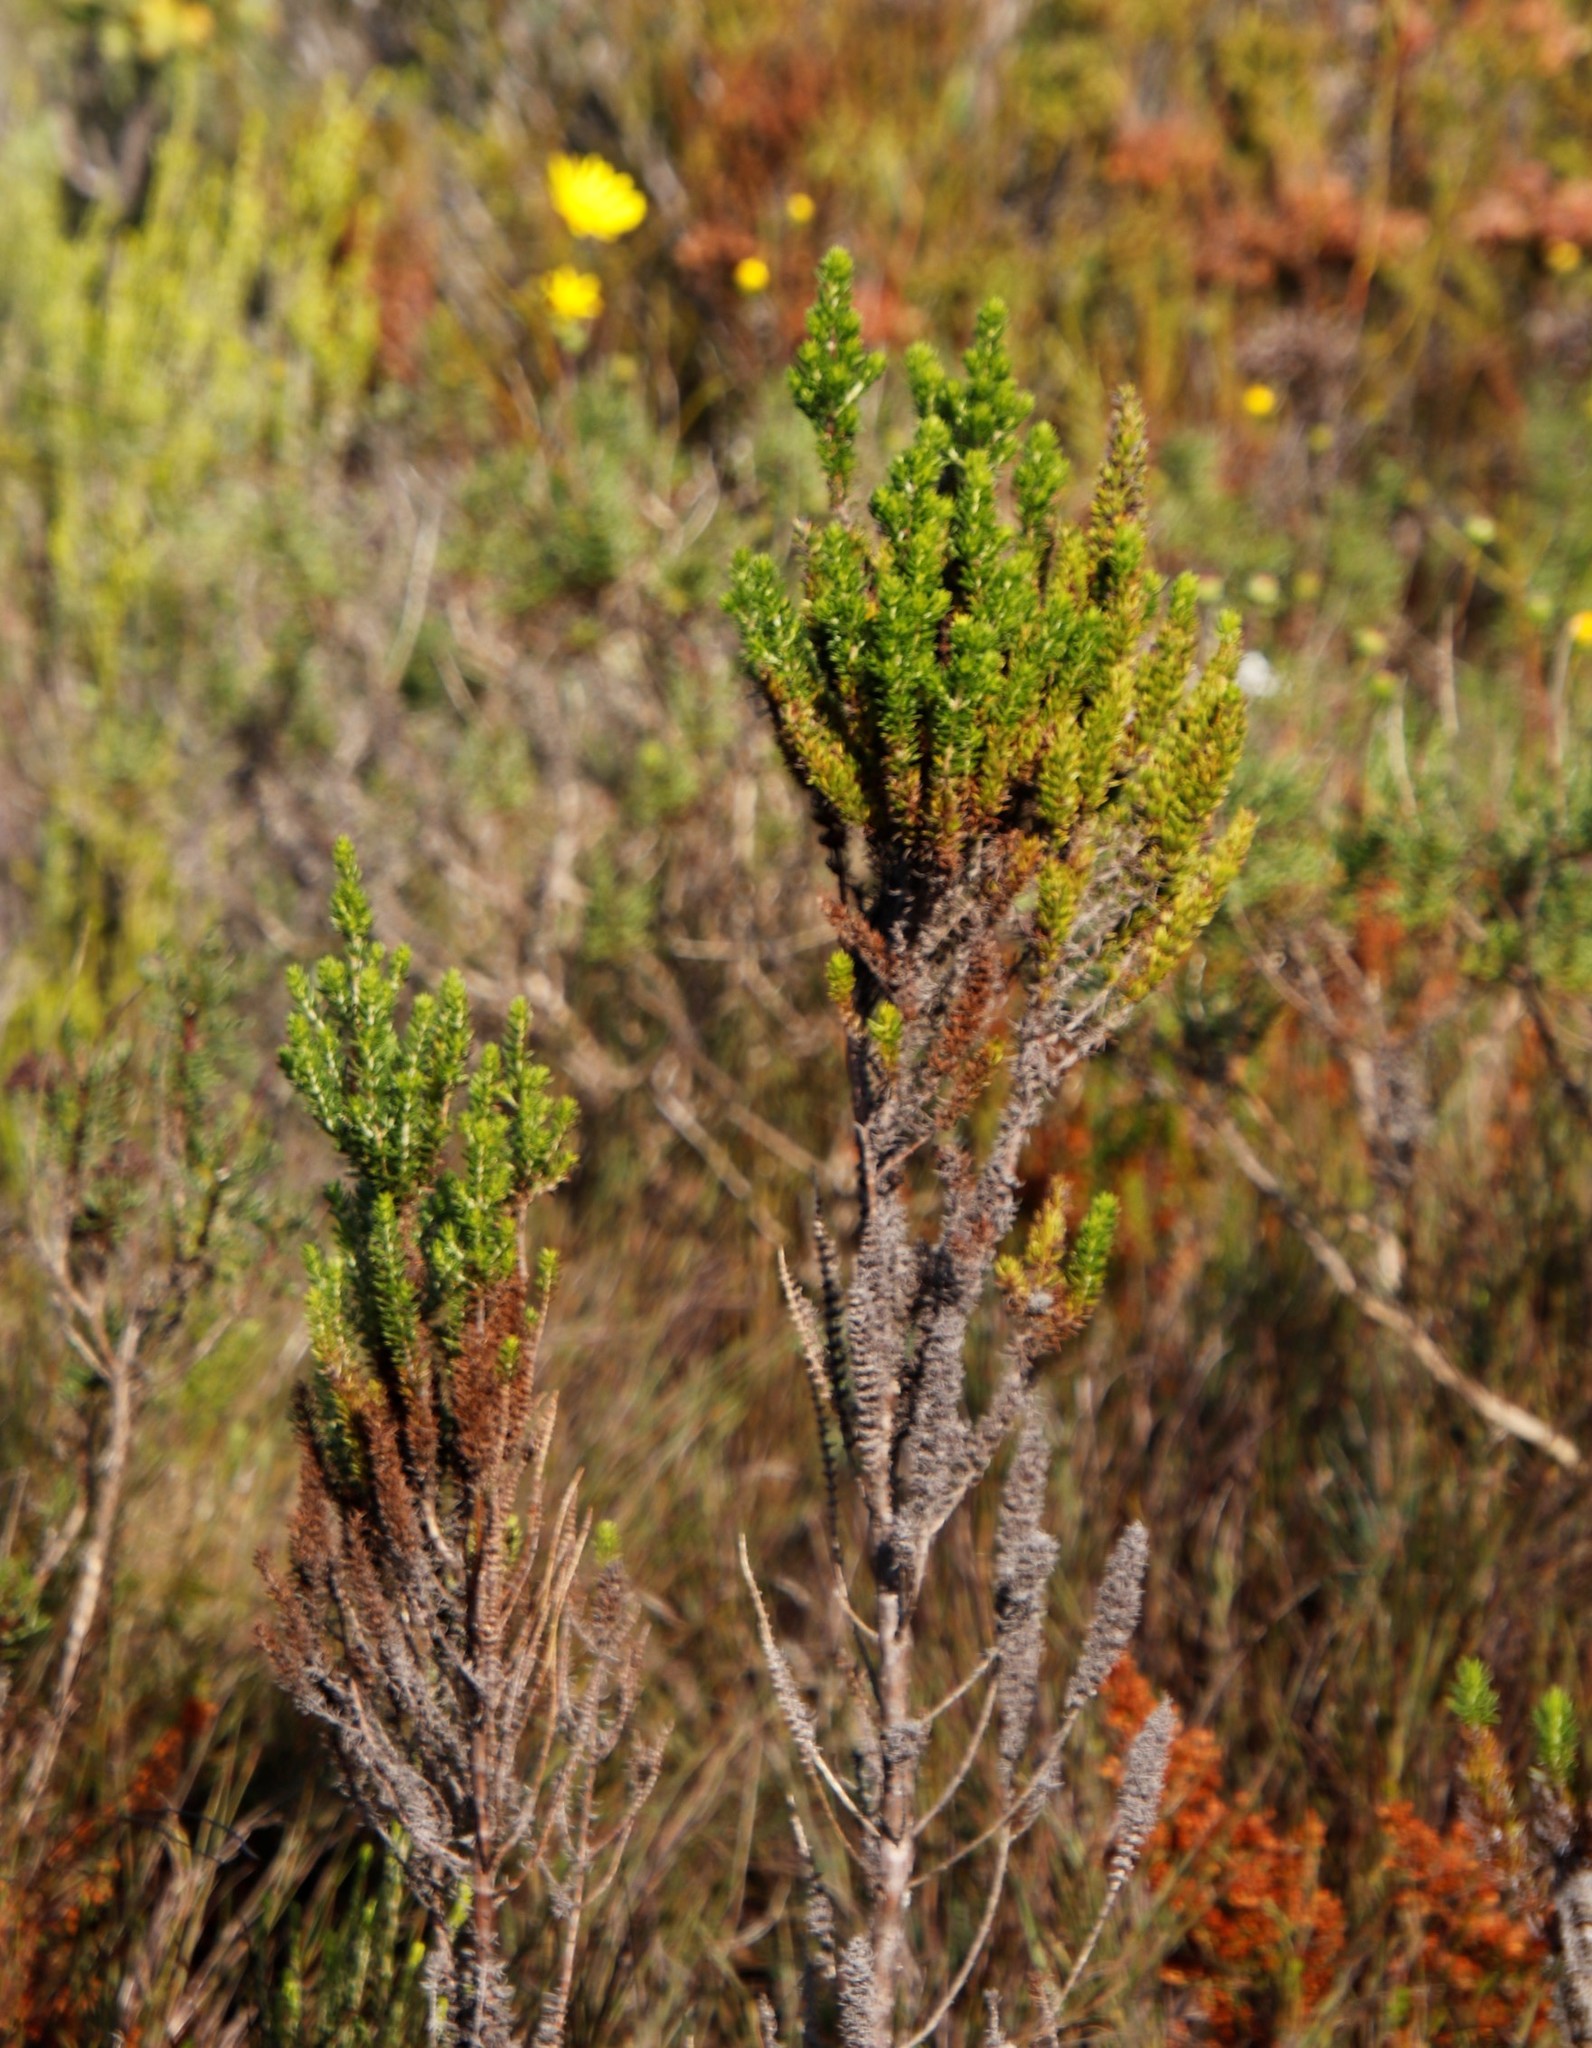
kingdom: Plantae
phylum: Tracheophyta
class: Magnoliopsida
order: Gentianales
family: Rubiaceae
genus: Anthospermum
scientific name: Anthospermum aethiopicum
